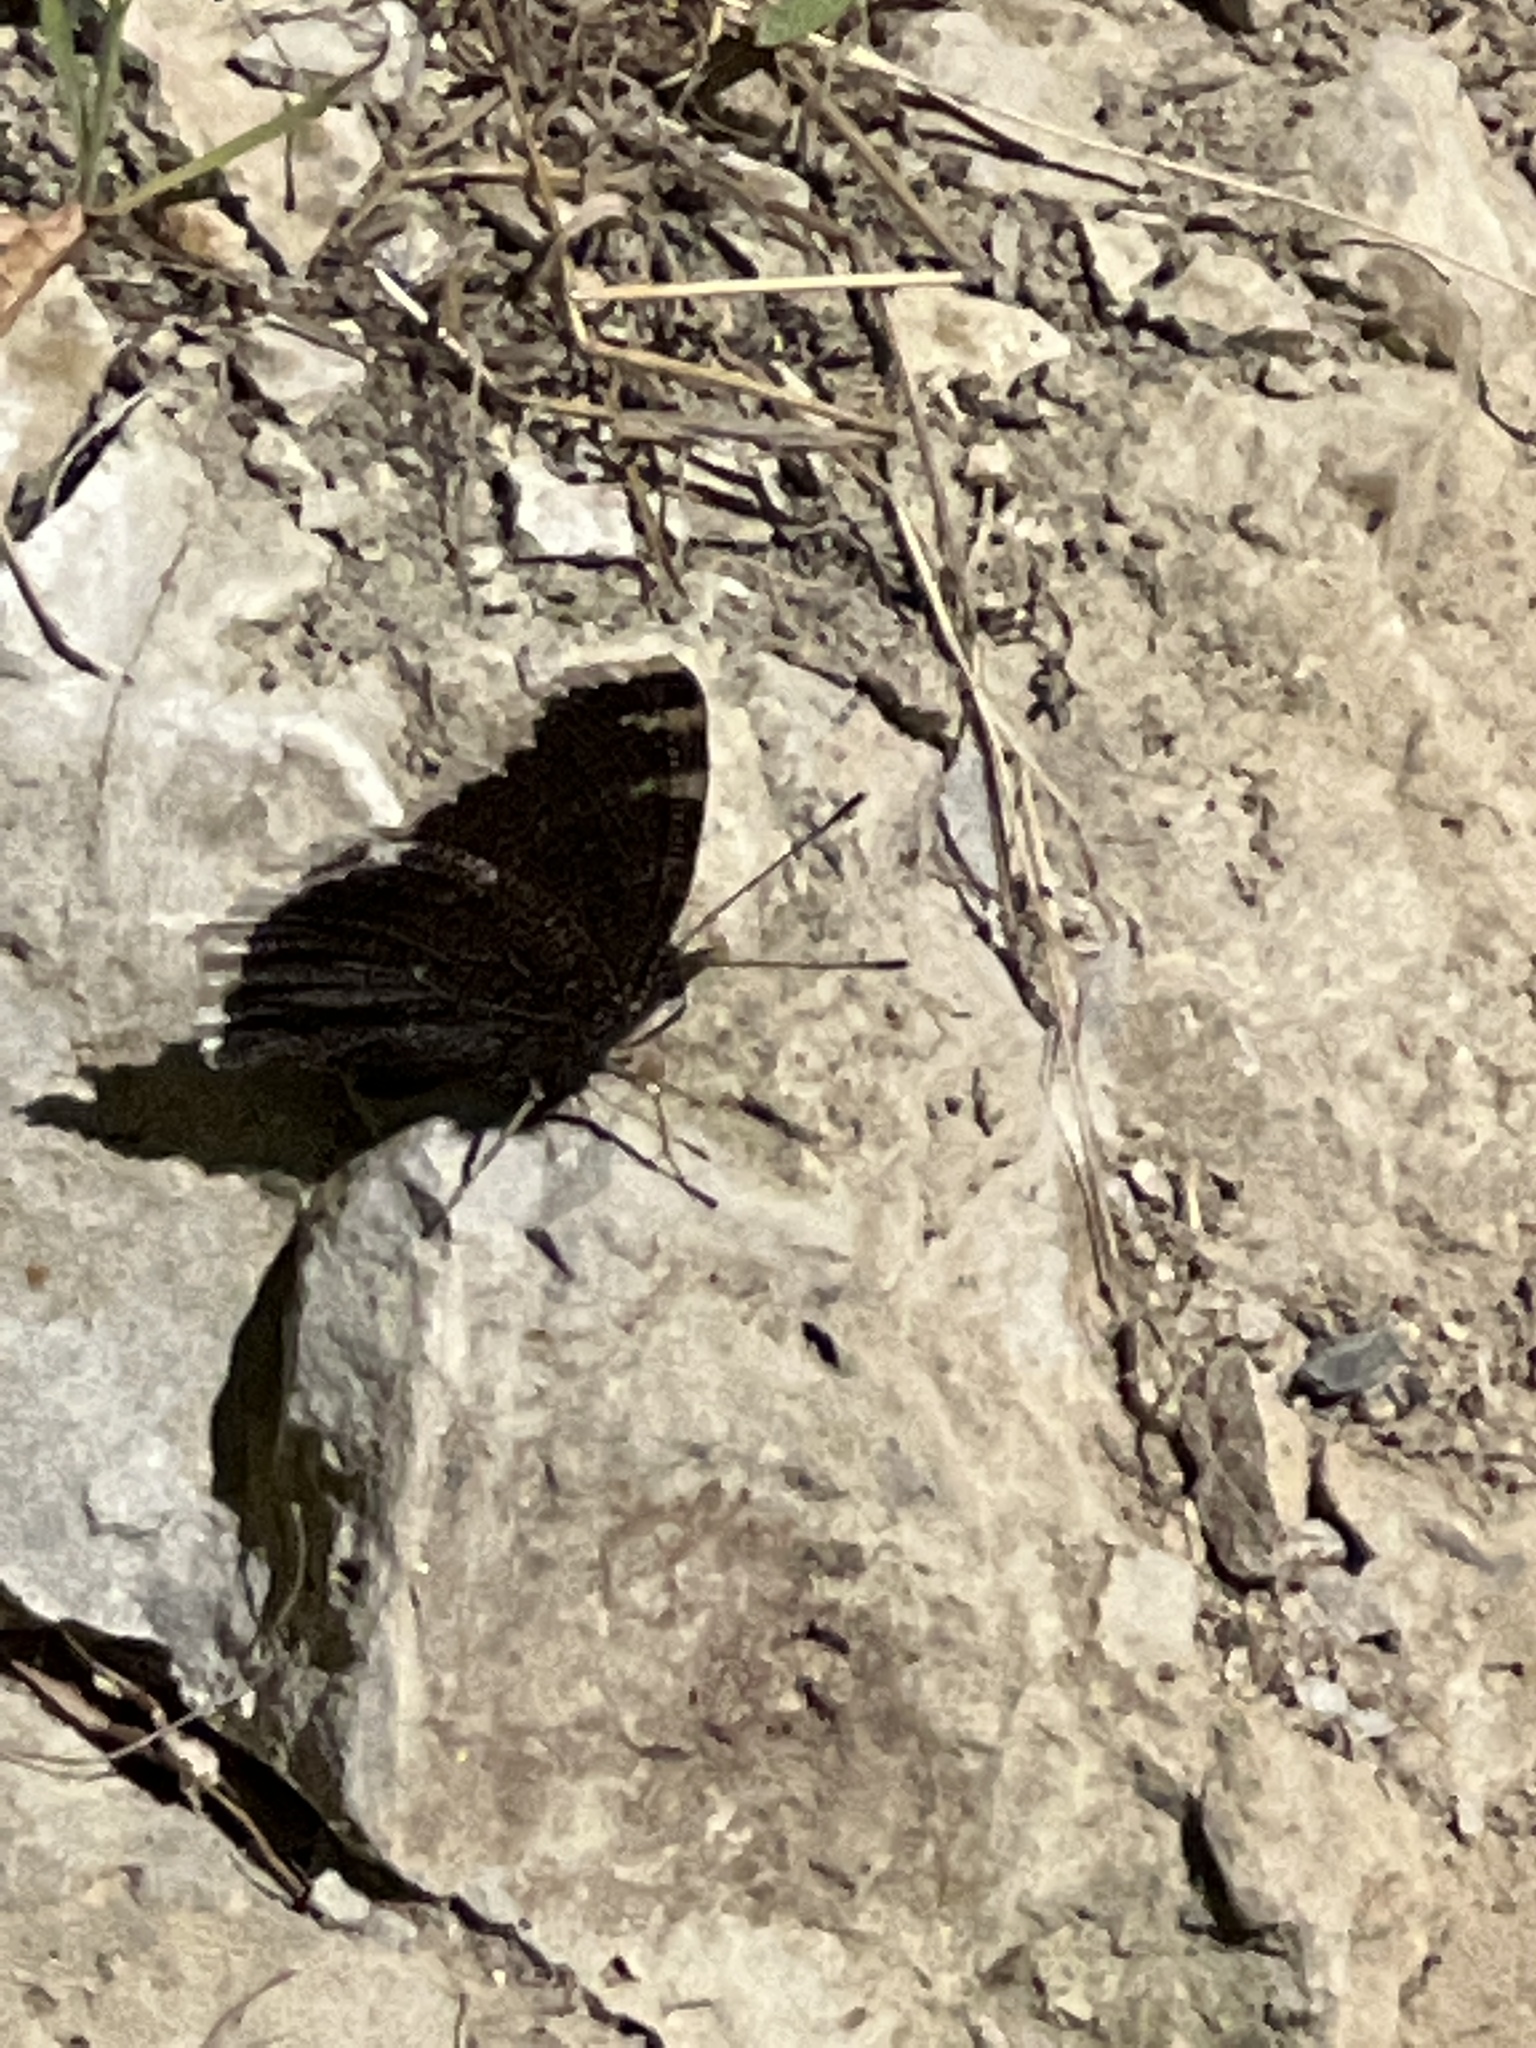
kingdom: Animalia
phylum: Arthropoda
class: Insecta
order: Lepidoptera
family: Nymphalidae
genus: Nymphalis
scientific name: Nymphalis antiopa
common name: Camberwell beauty
